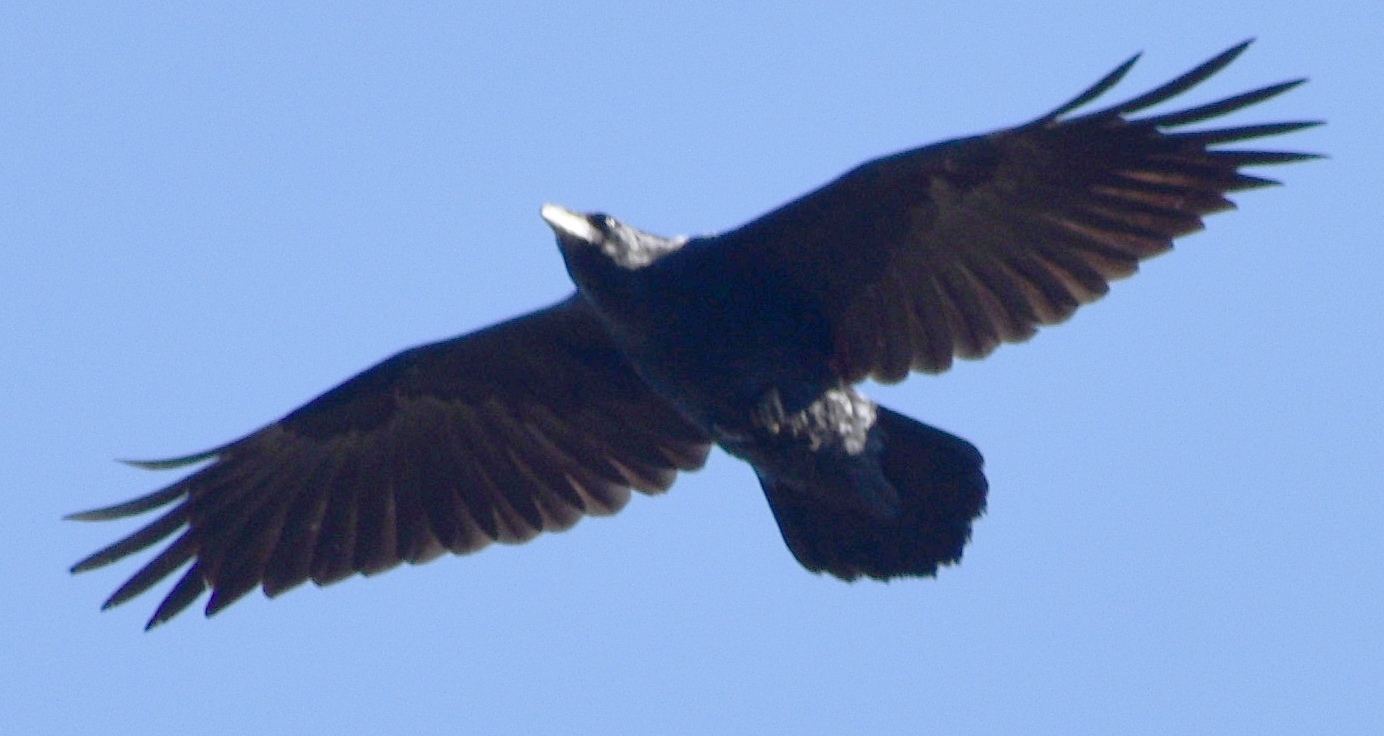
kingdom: Animalia
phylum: Chordata
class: Aves
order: Passeriformes
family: Corvidae
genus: Corvus
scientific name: Corvus corax
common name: Common raven
